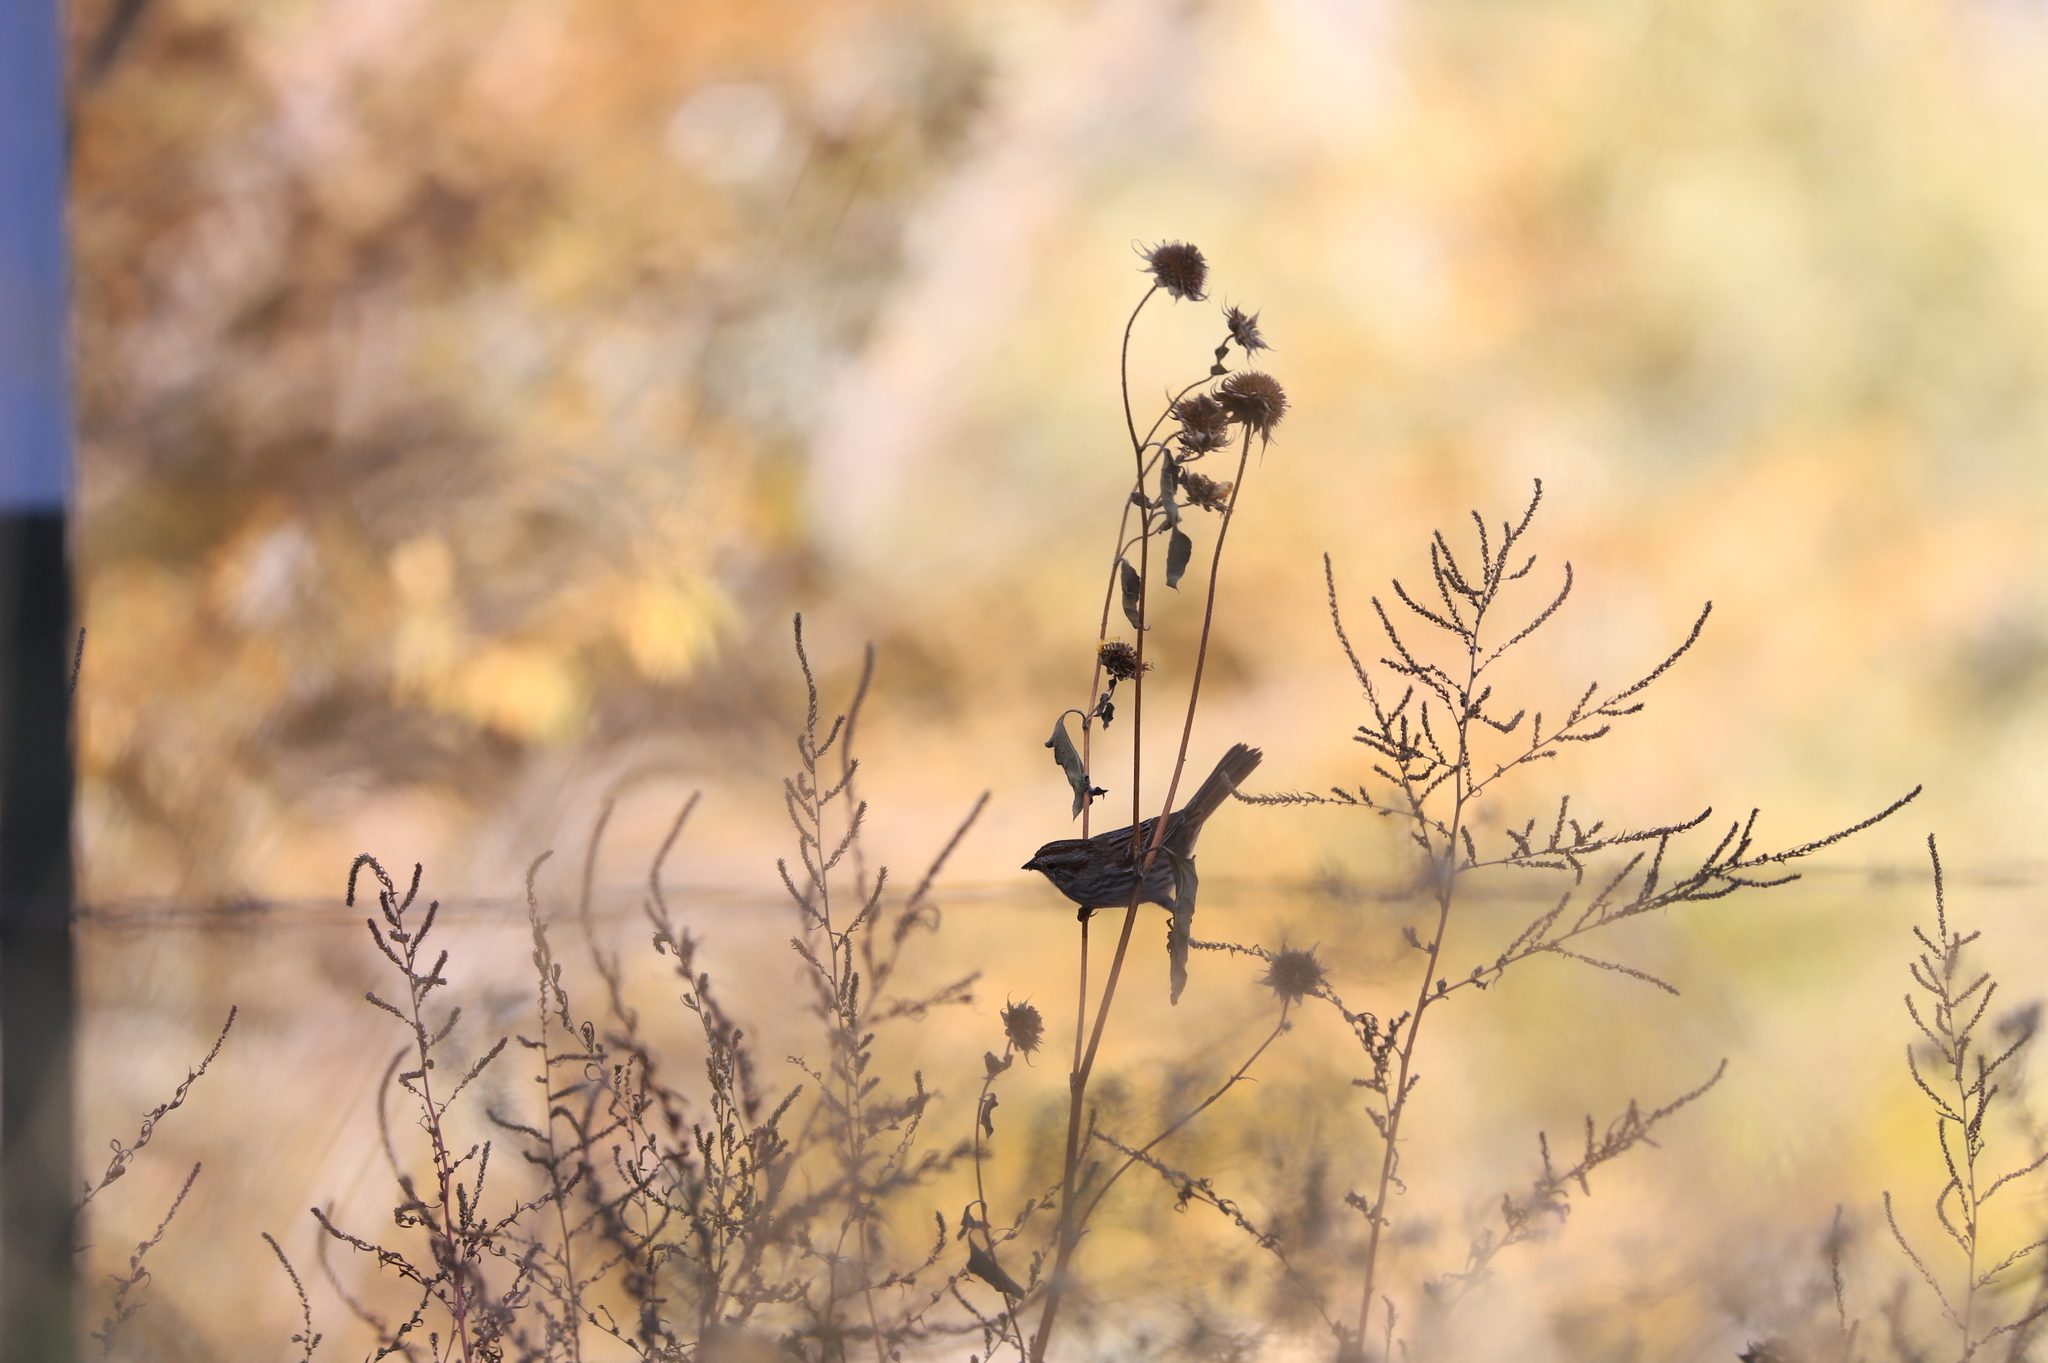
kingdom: Animalia
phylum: Chordata
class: Aves
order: Passeriformes
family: Passerellidae
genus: Melospiza
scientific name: Melospiza melodia
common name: Song sparrow
